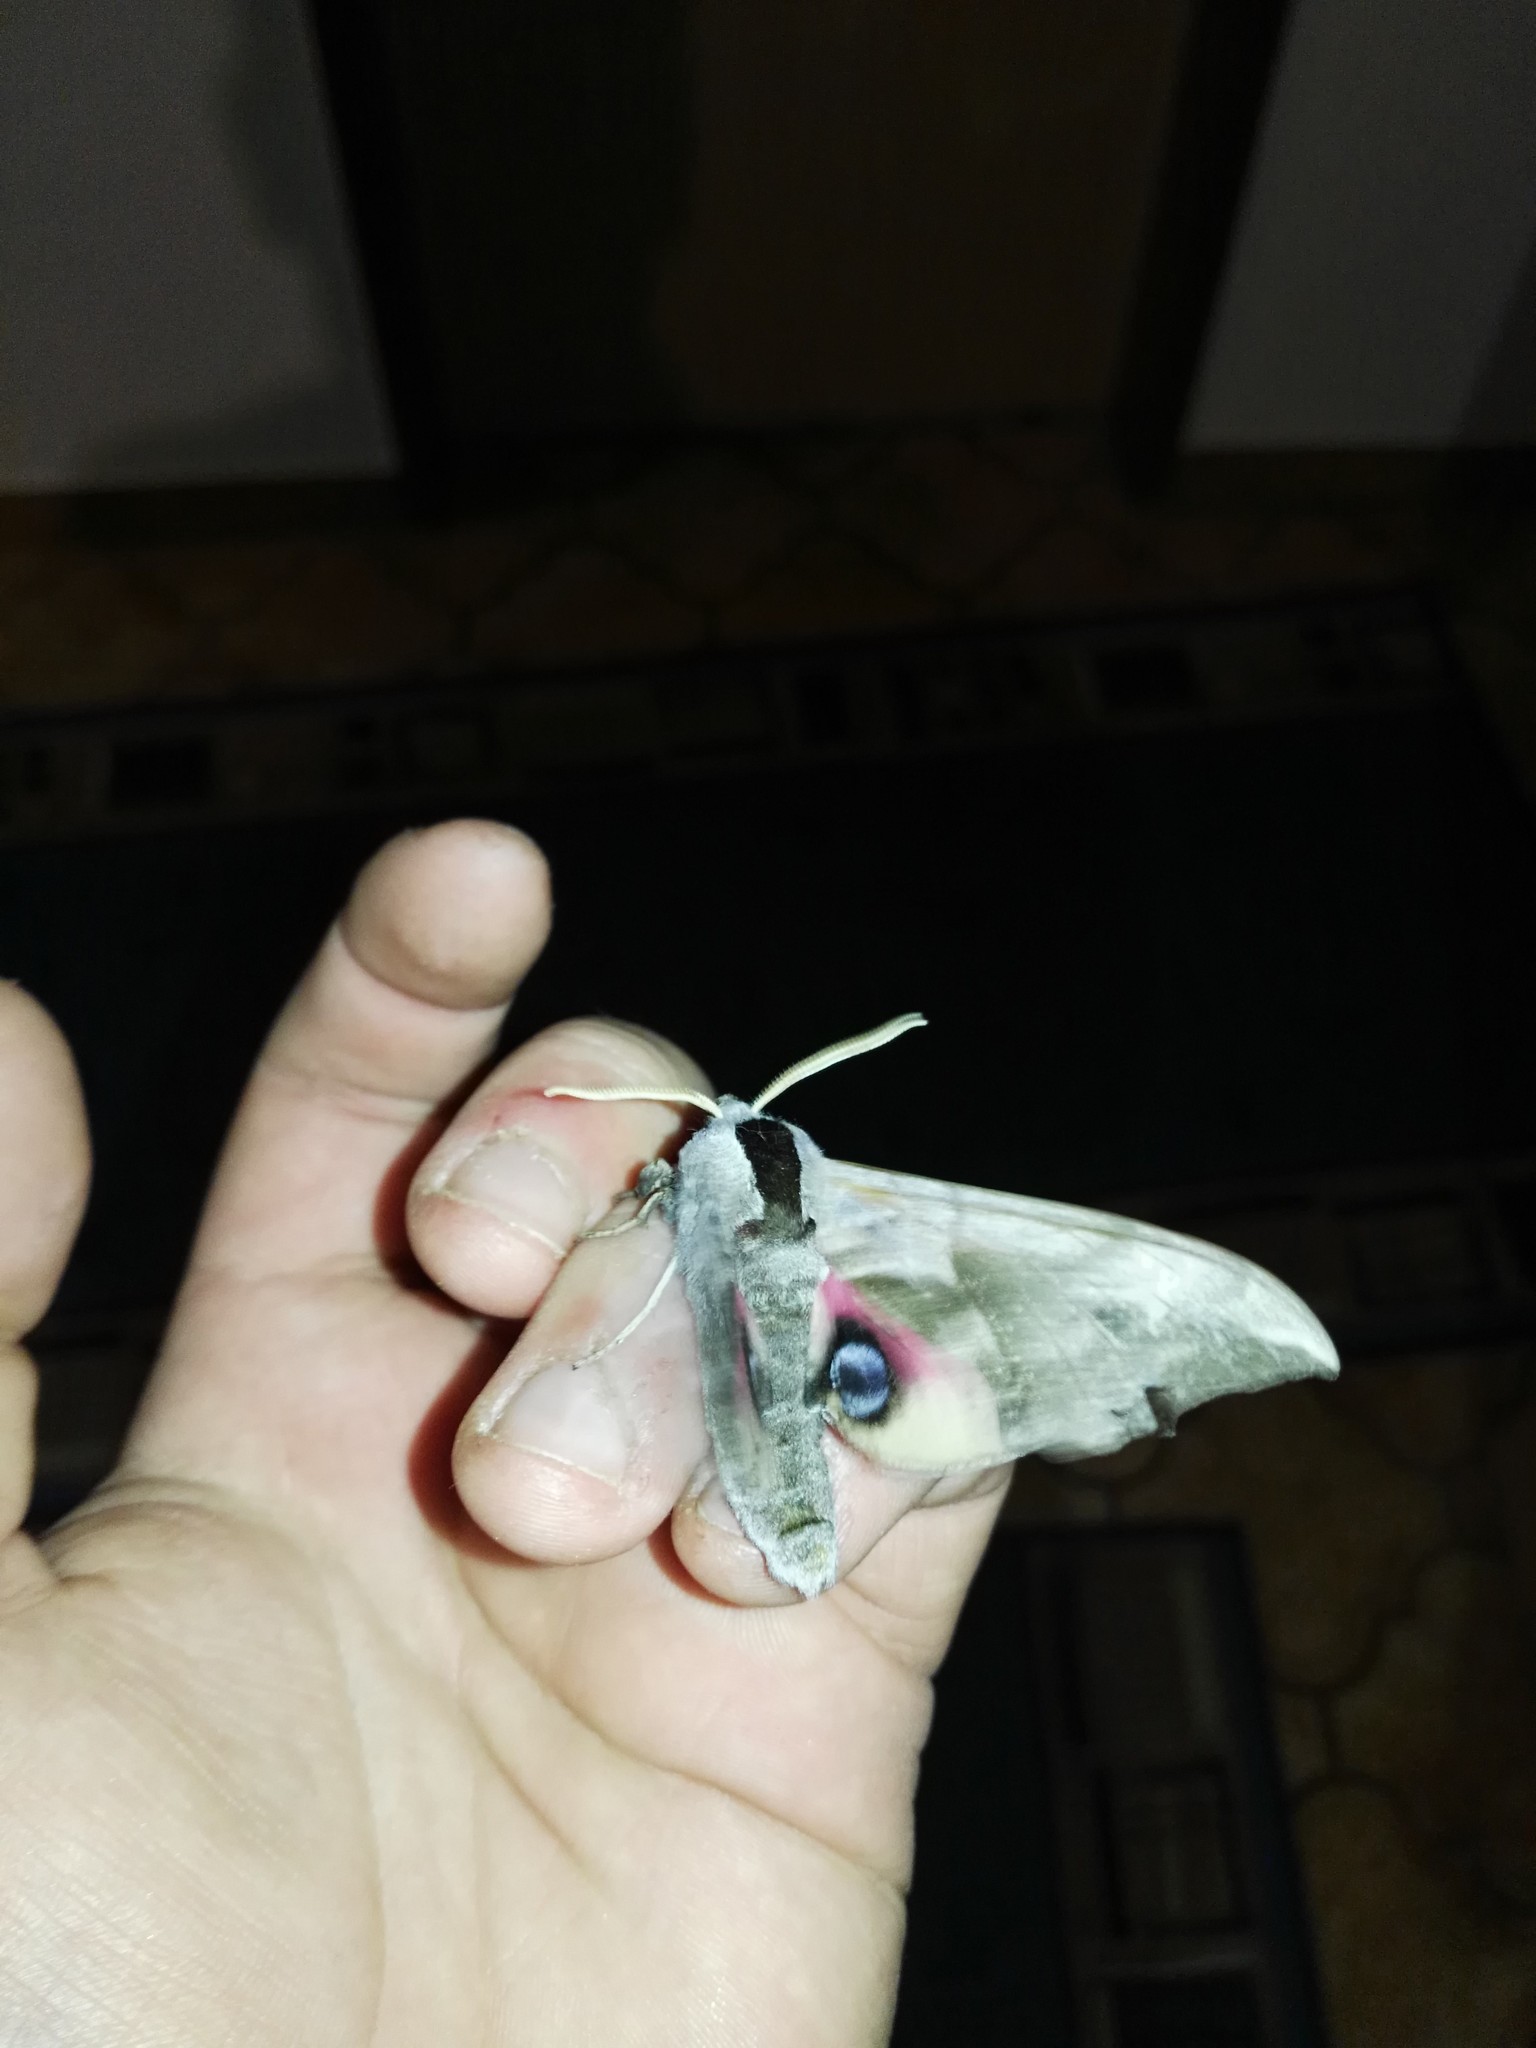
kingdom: Animalia
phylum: Arthropoda
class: Insecta
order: Lepidoptera
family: Sphingidae
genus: Smerinthus
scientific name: Smerinthus ocellata
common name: Eyed hawk-moth
